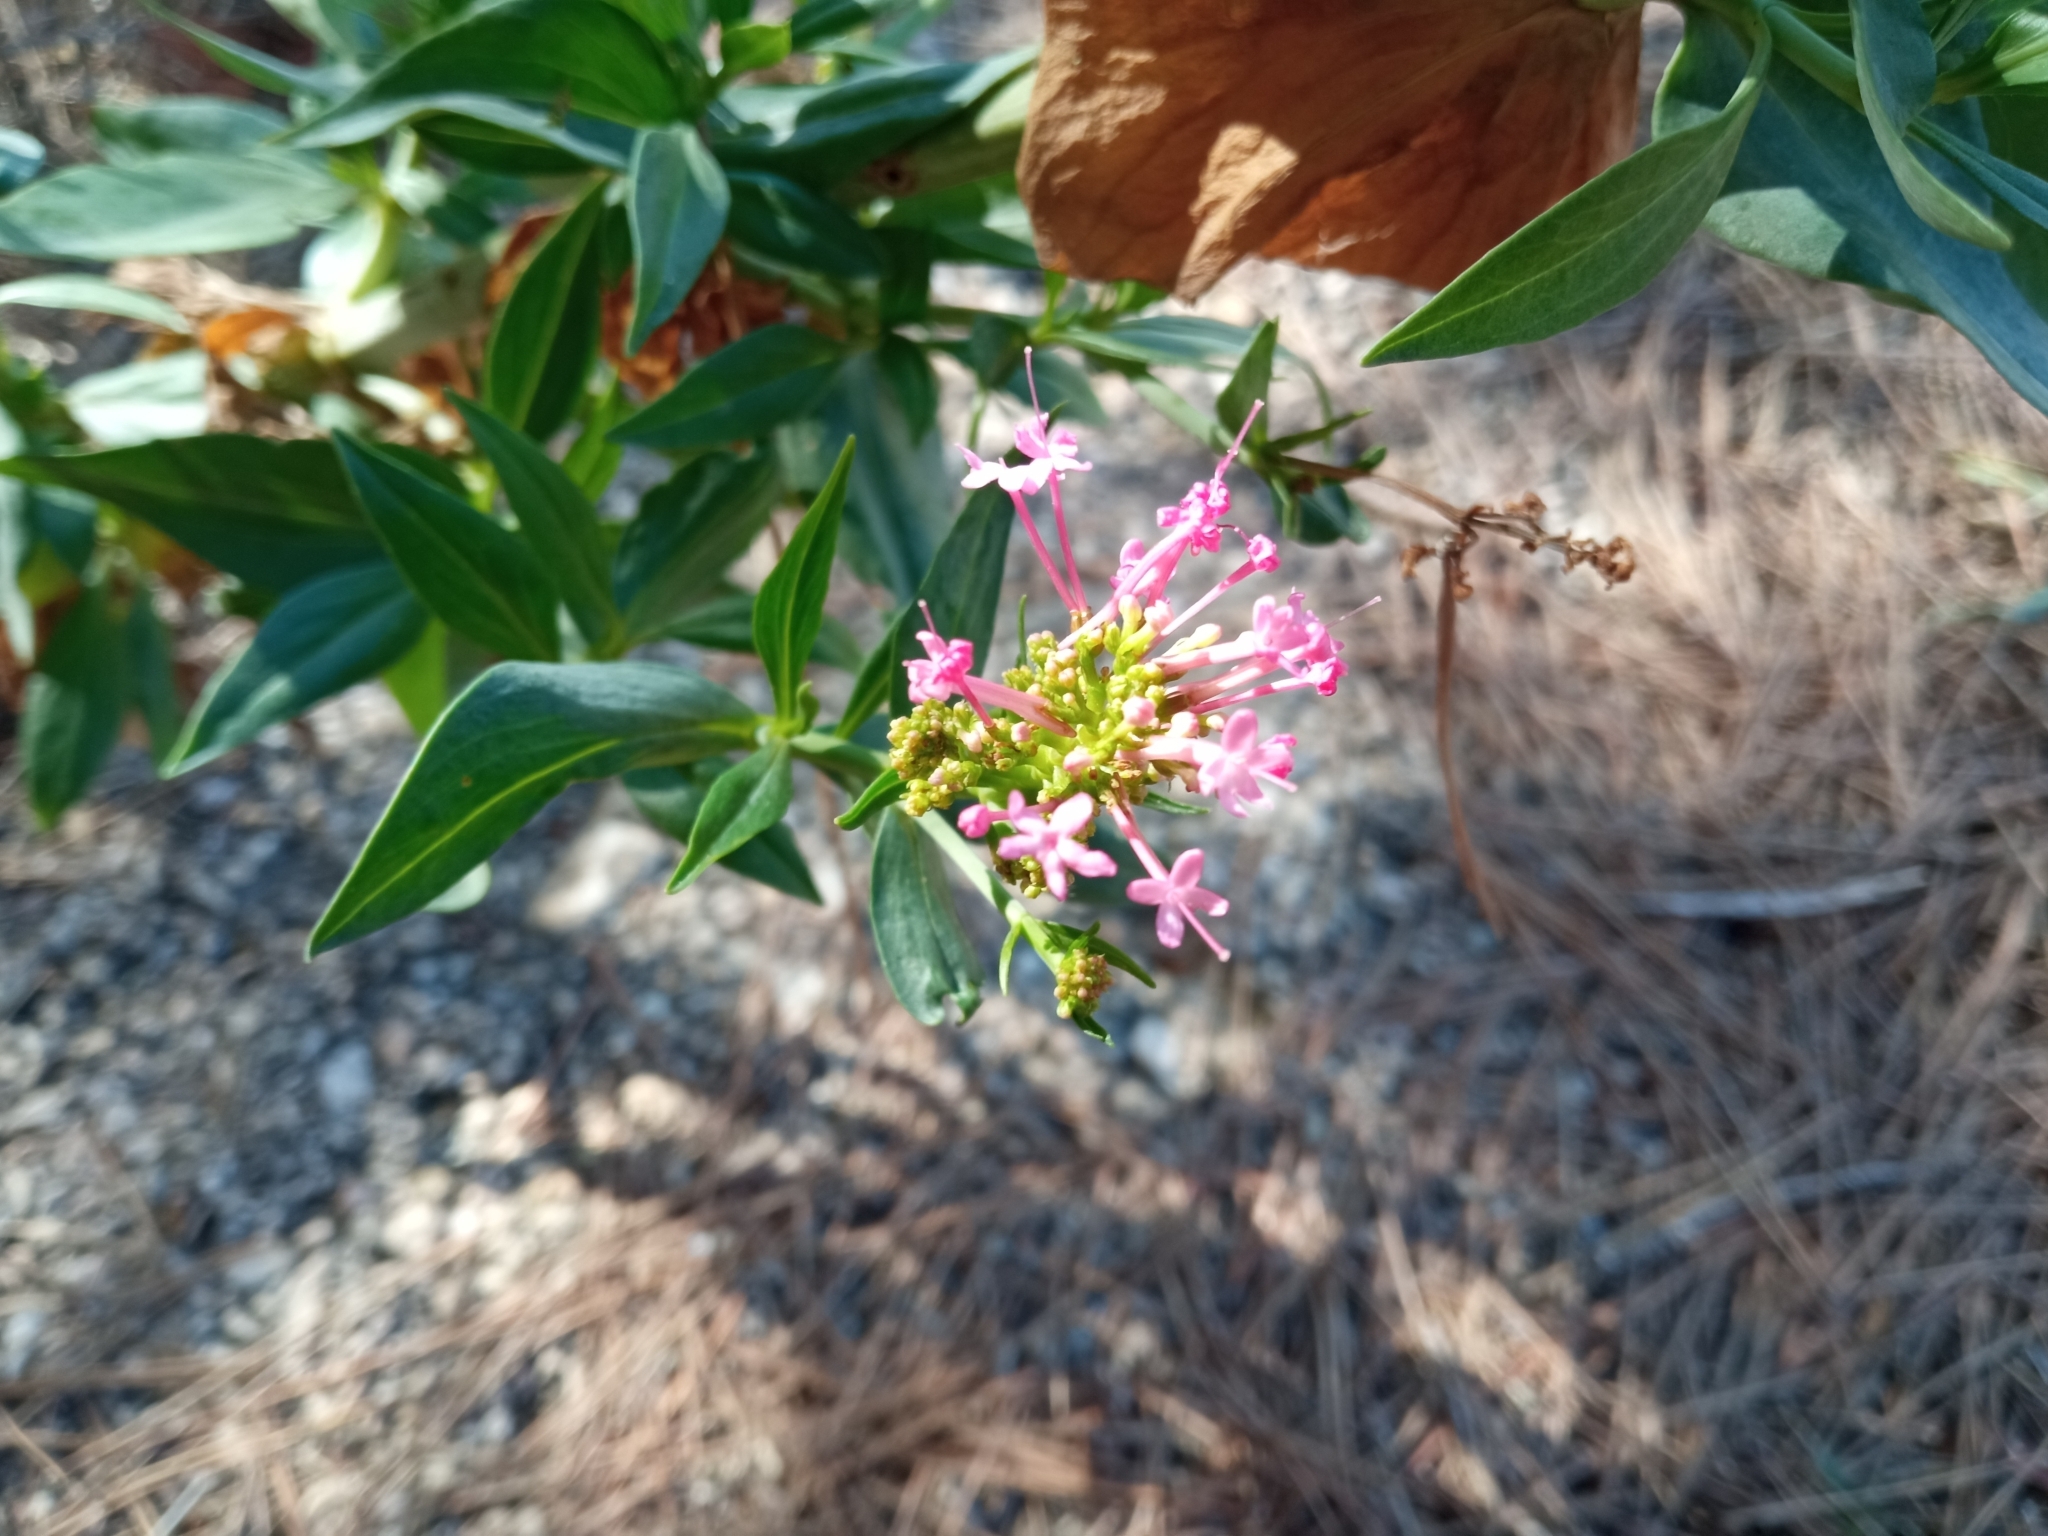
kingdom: Plantae
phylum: Tracheophyta
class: Magnoliopsida
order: Dipsacales
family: Caprifoliaceae
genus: Centranthus
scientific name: Centranthus ruber
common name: Red valerian
